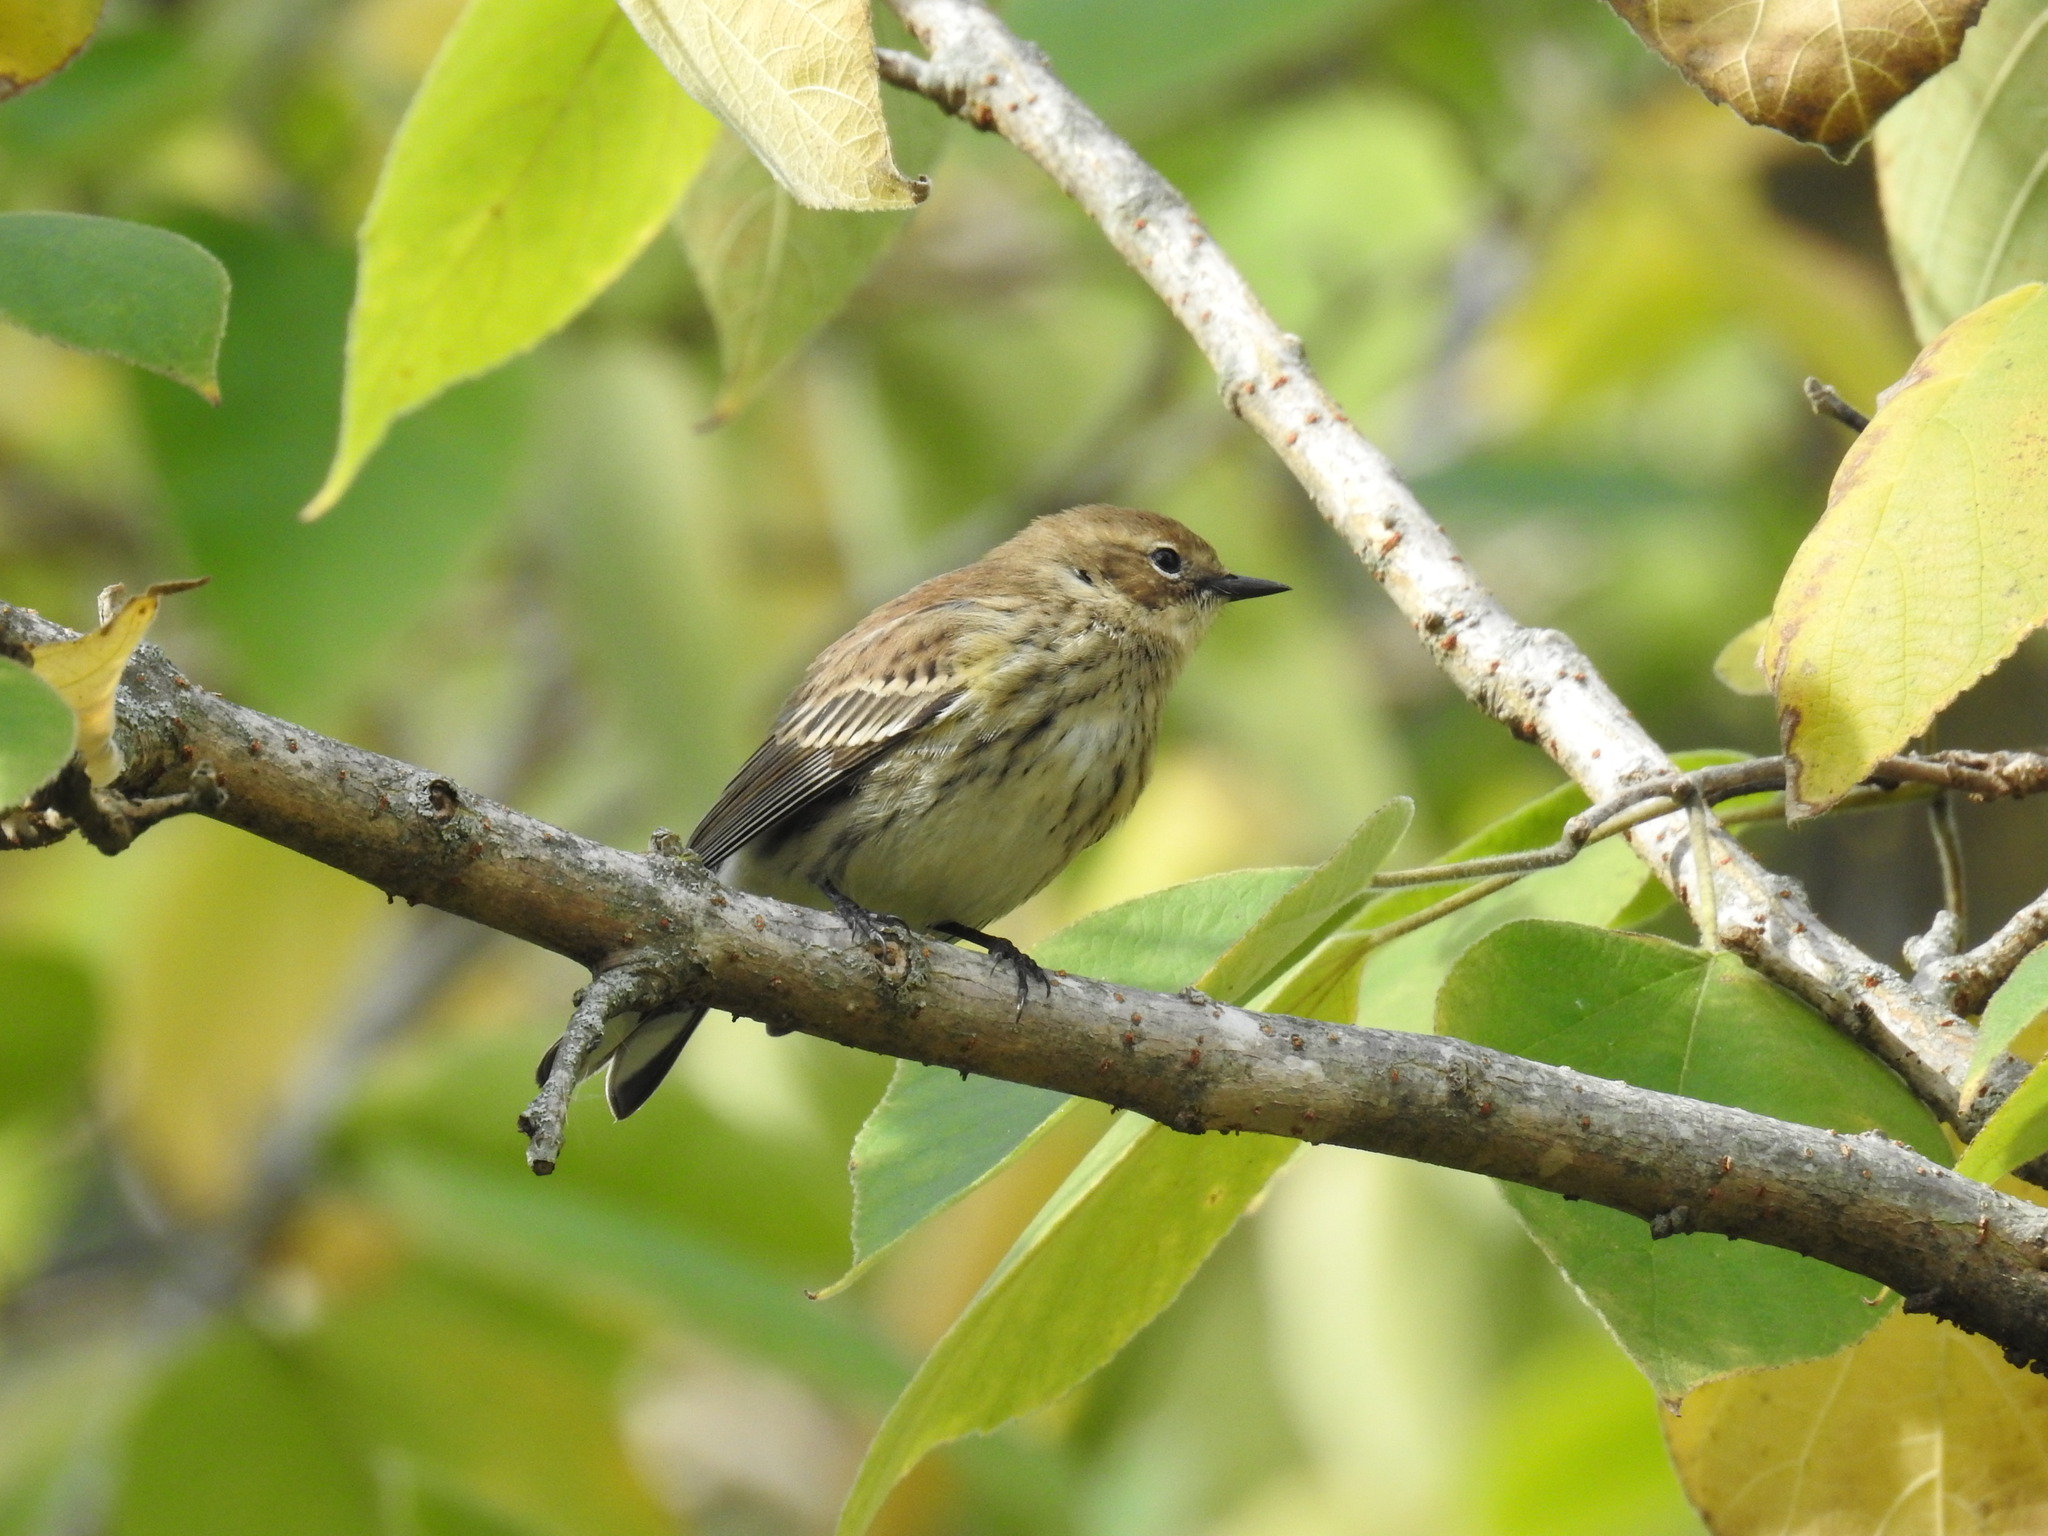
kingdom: Animalia
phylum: Chordata
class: Aves
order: Passeriformes
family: Parulidae
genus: Setophaga
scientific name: Setophaga coronata
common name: Myrtle warbler
